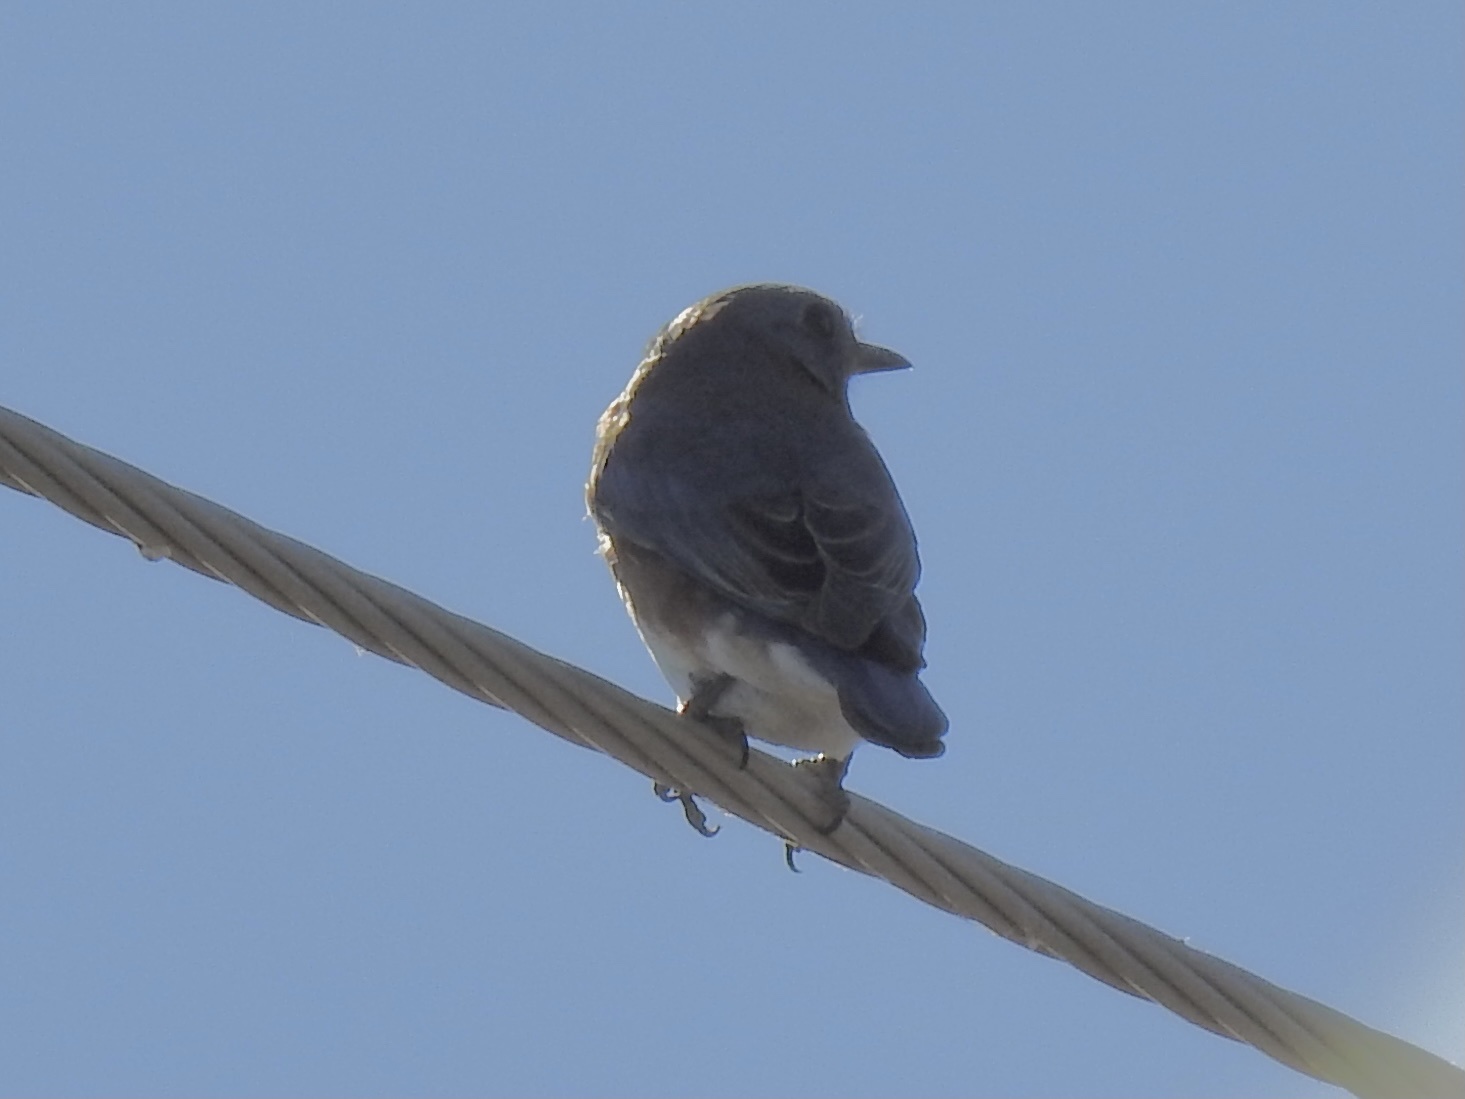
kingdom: Animalia
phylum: Chordata
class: Aves
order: Passeriformes
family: Turdidae
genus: Sialia
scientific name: Sialia sialis
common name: Eastern bluebird
